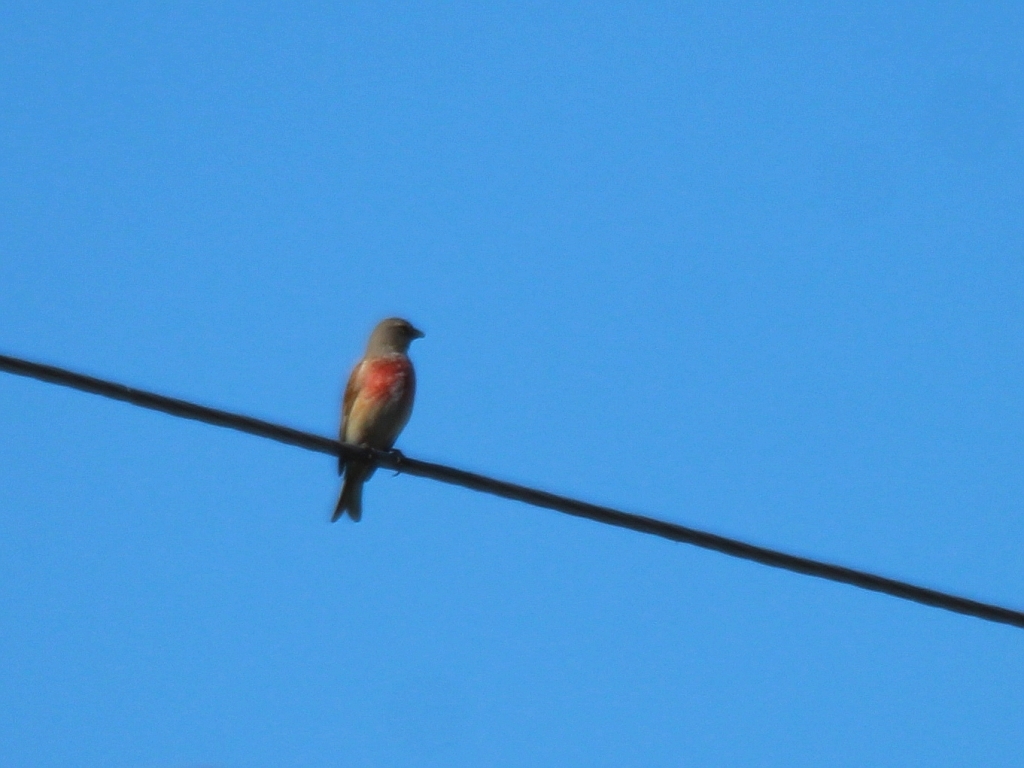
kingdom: Animalia
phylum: Chordata
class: Aves
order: Passeriformes
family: Fringillidae
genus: Linaria
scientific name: Linaria cannabina
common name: Common linnet
